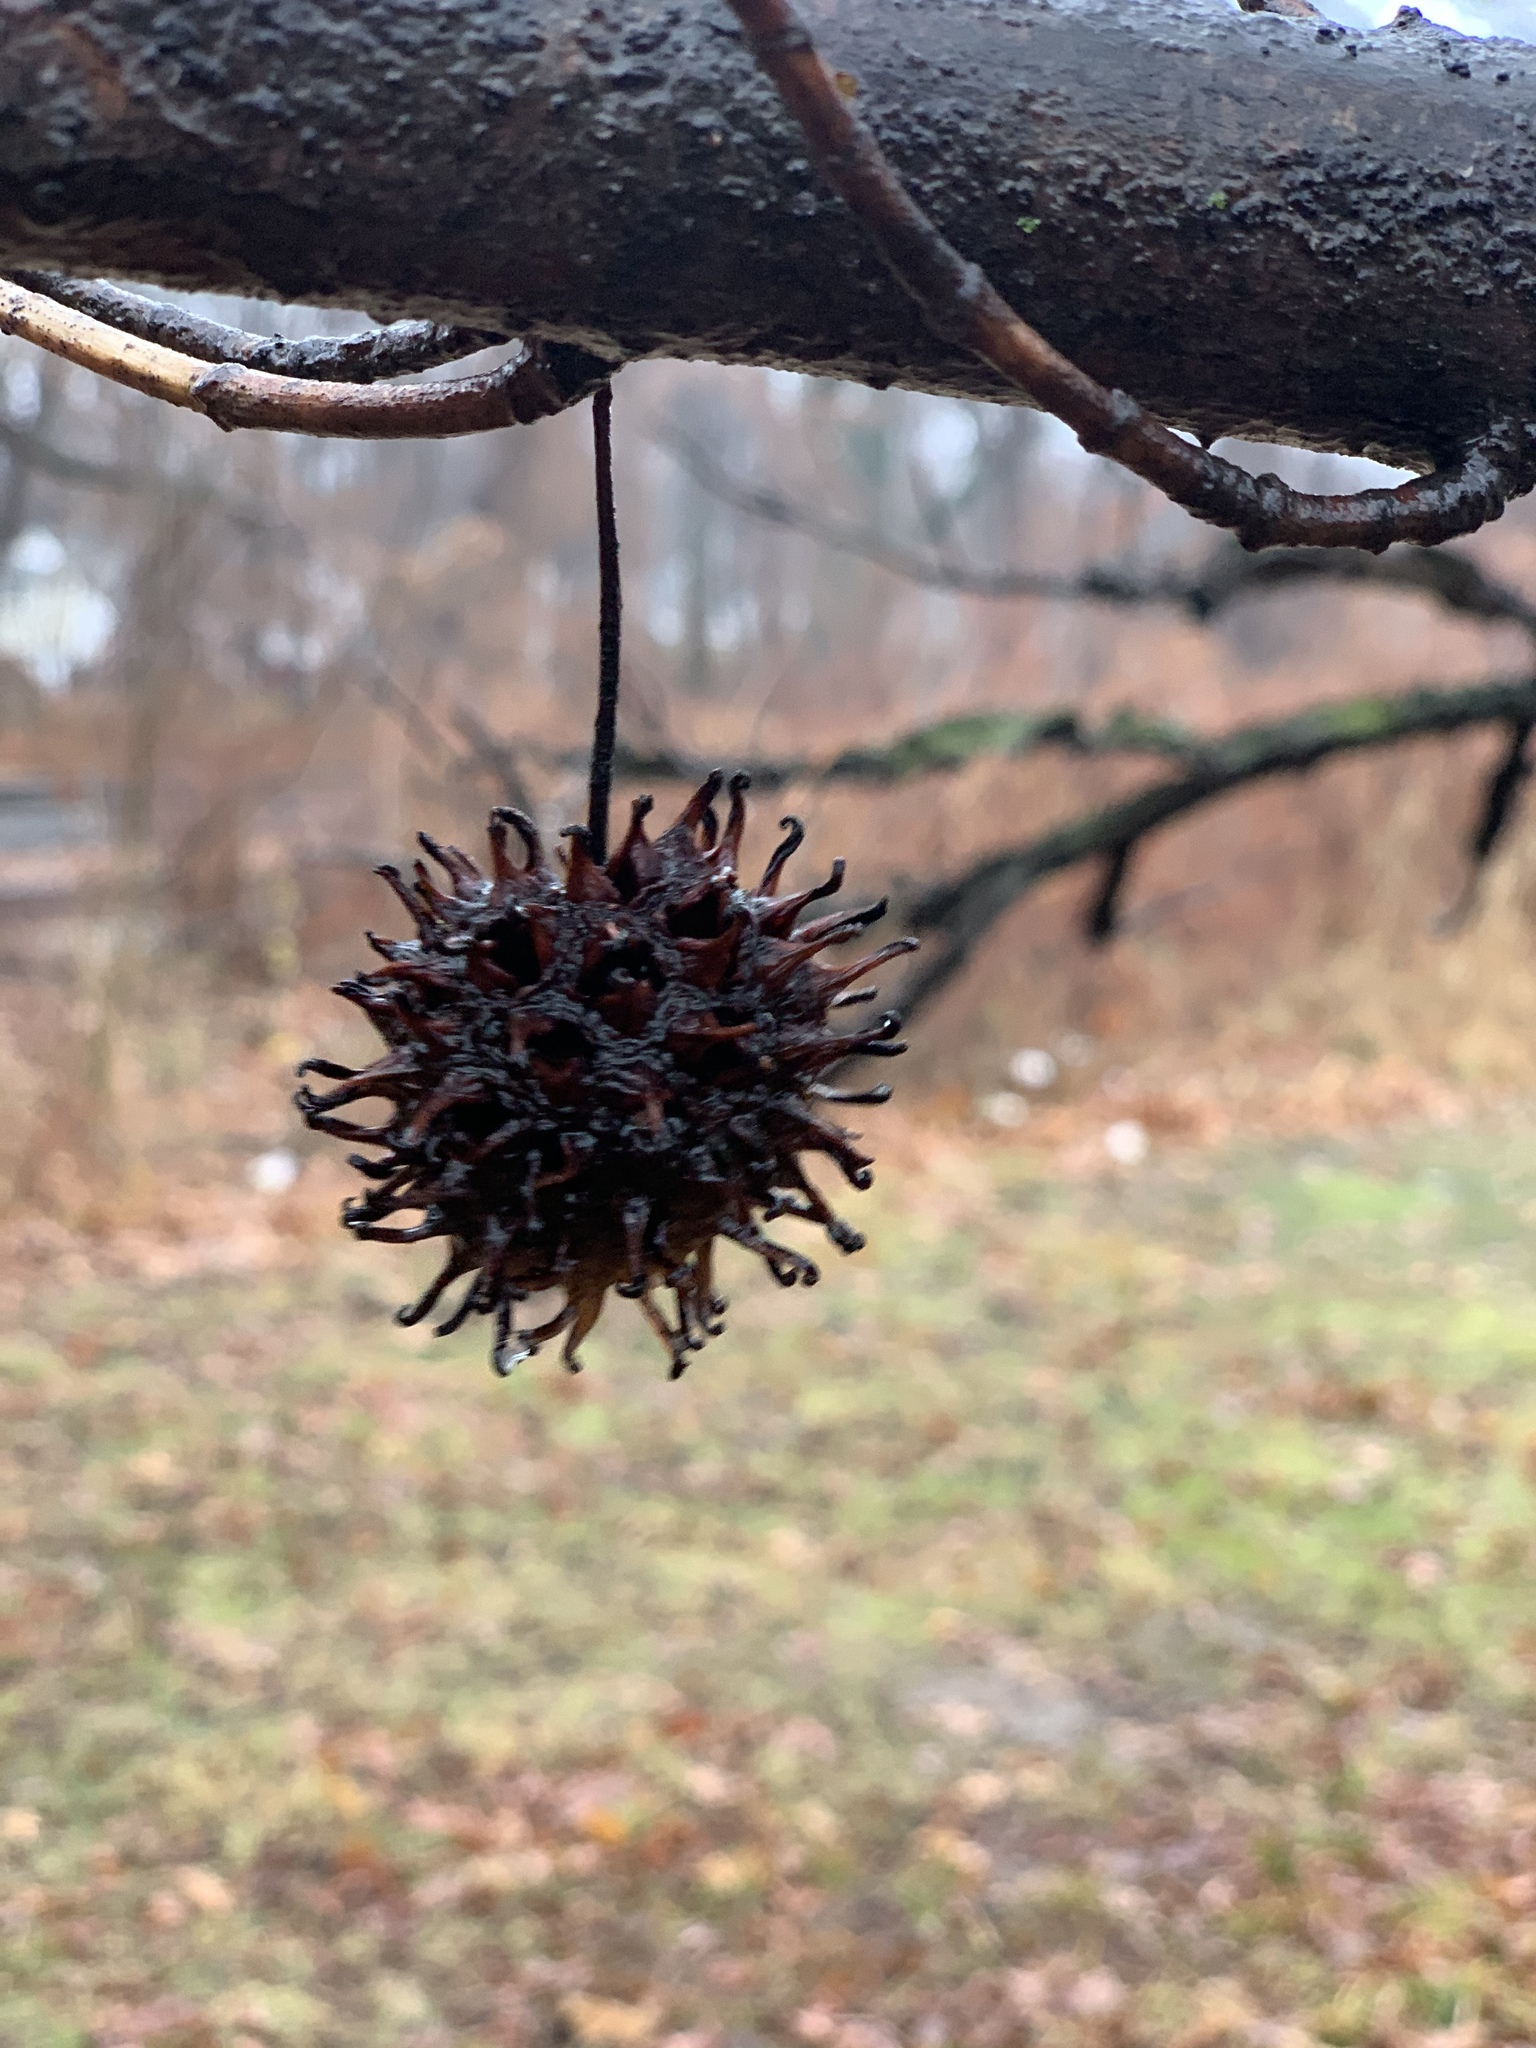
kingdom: Plantae
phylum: Tracheophyta
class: Magnoliopsida
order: Saxifragales
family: Altingiaceae
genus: Liquidambar
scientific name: Liquidambar styraciflua
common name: Sweet gum
